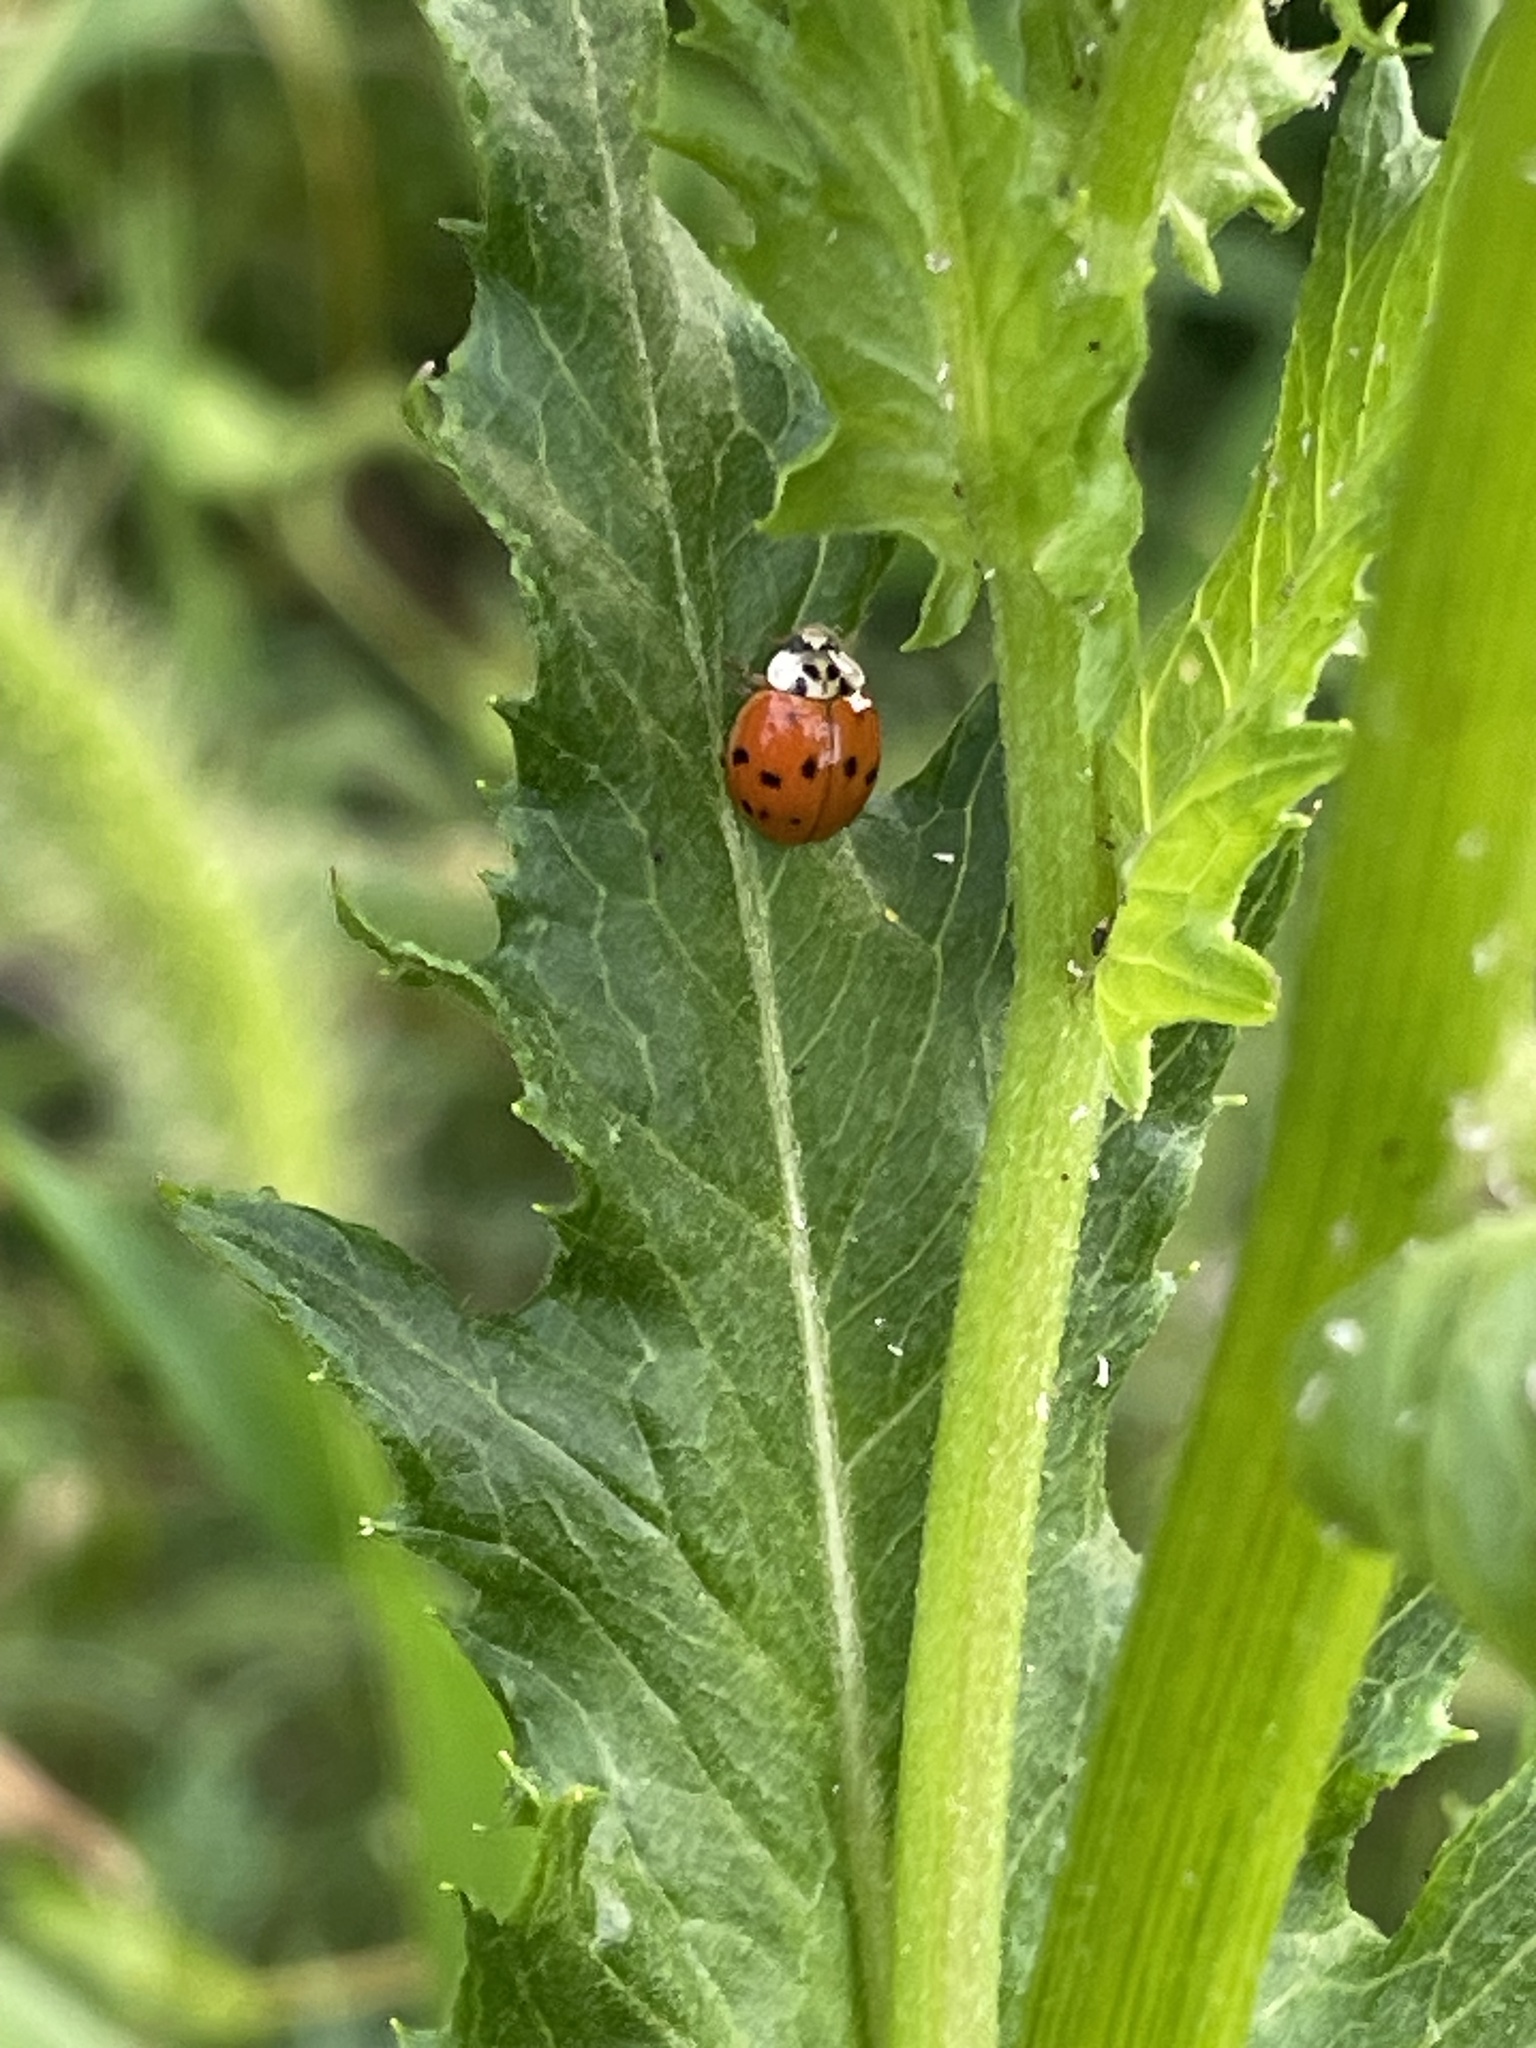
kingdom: Animalia
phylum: Arthropoda
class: Insecta
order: Coleoptera
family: Coccinellidae
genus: Harmonia
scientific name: Harmonia axyridis
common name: Harlequin ladybird
